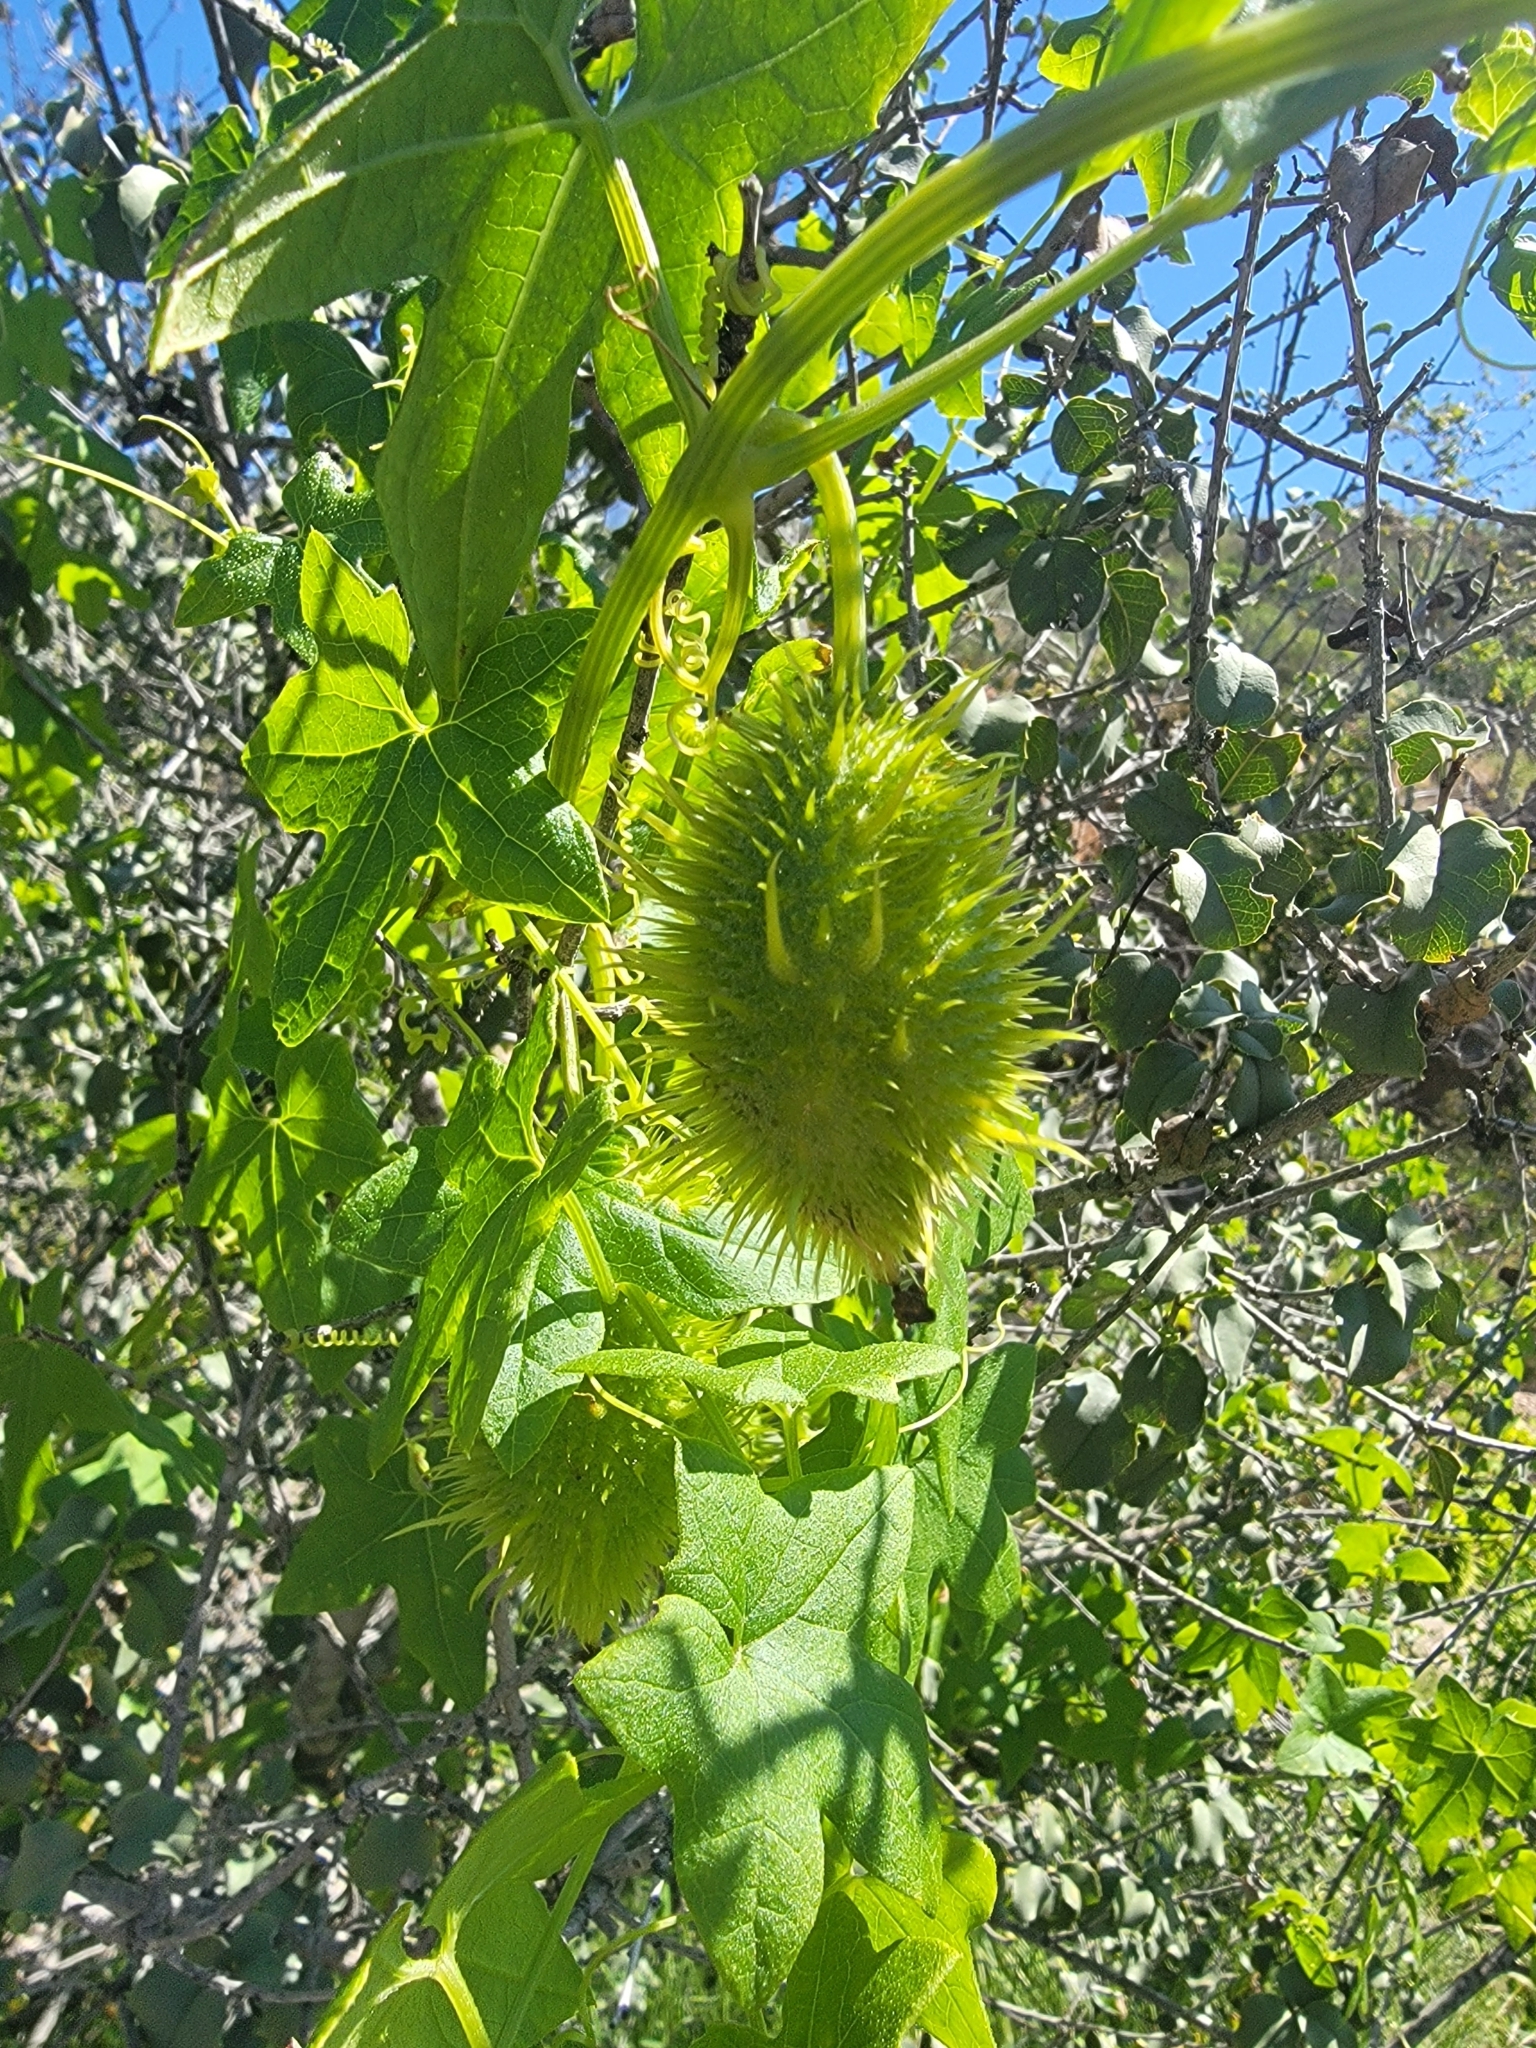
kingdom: Plantae
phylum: Tracheophyta
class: Magnoliopsida
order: Cucurbitales
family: Cucurbitaceae
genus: Marah
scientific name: Marah macrocarpa
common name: Cucamonga manroot
